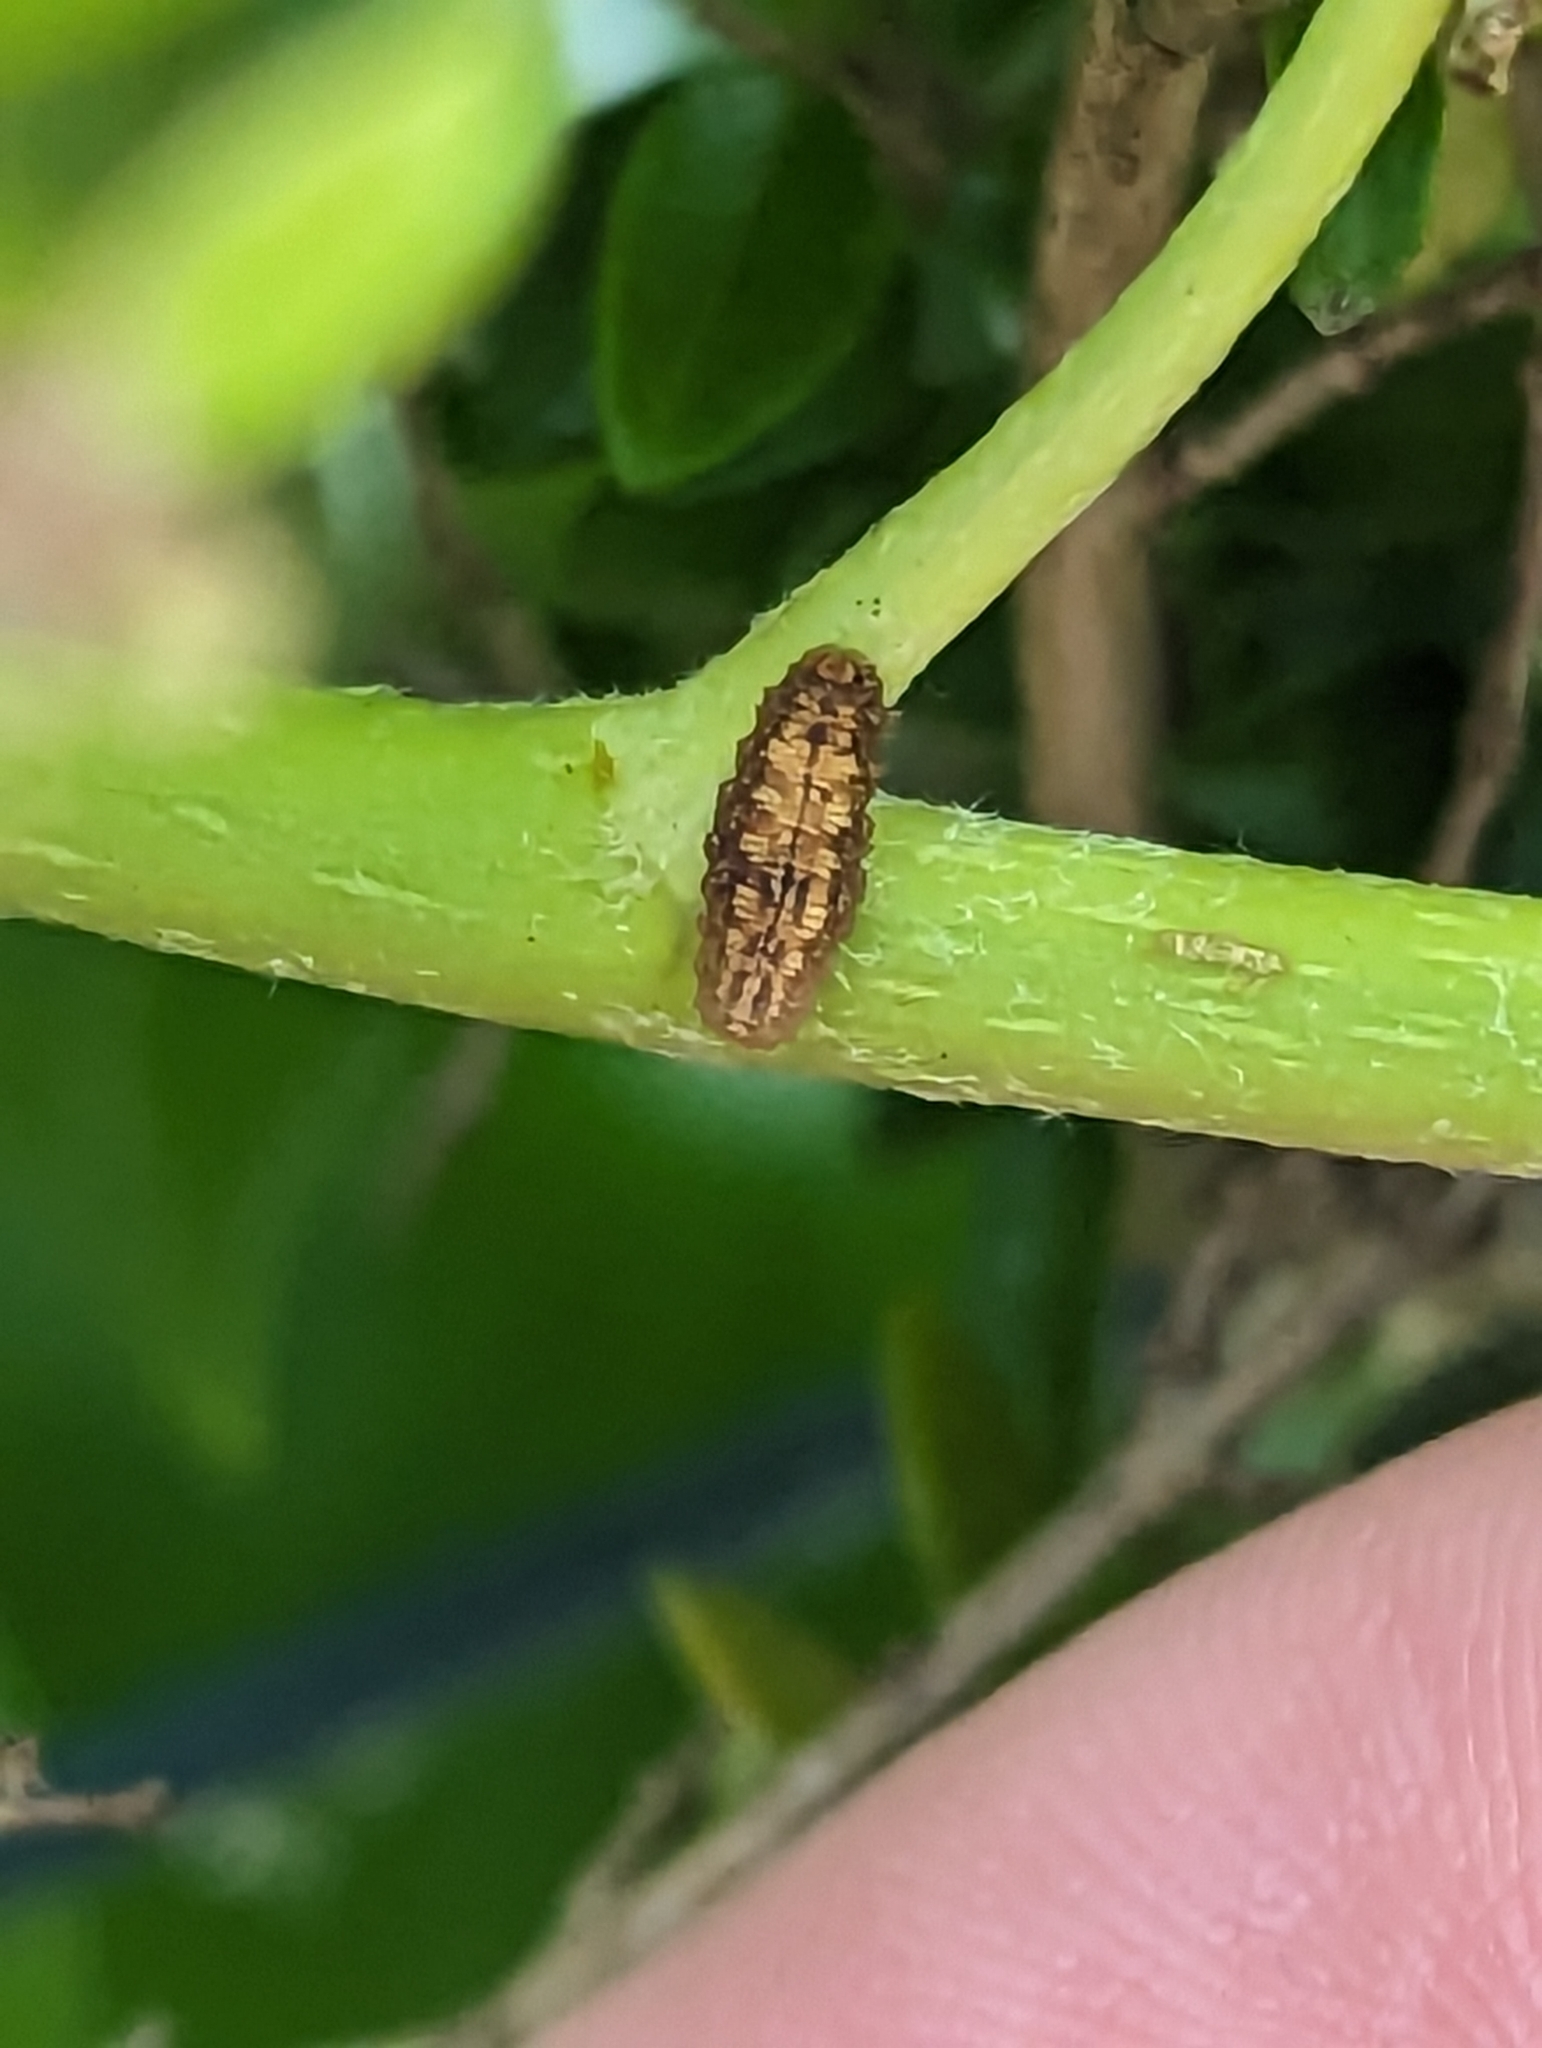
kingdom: Animalia
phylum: Arthropoda
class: Insecta
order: Diptera
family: Syrphidae
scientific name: Syrphidae
